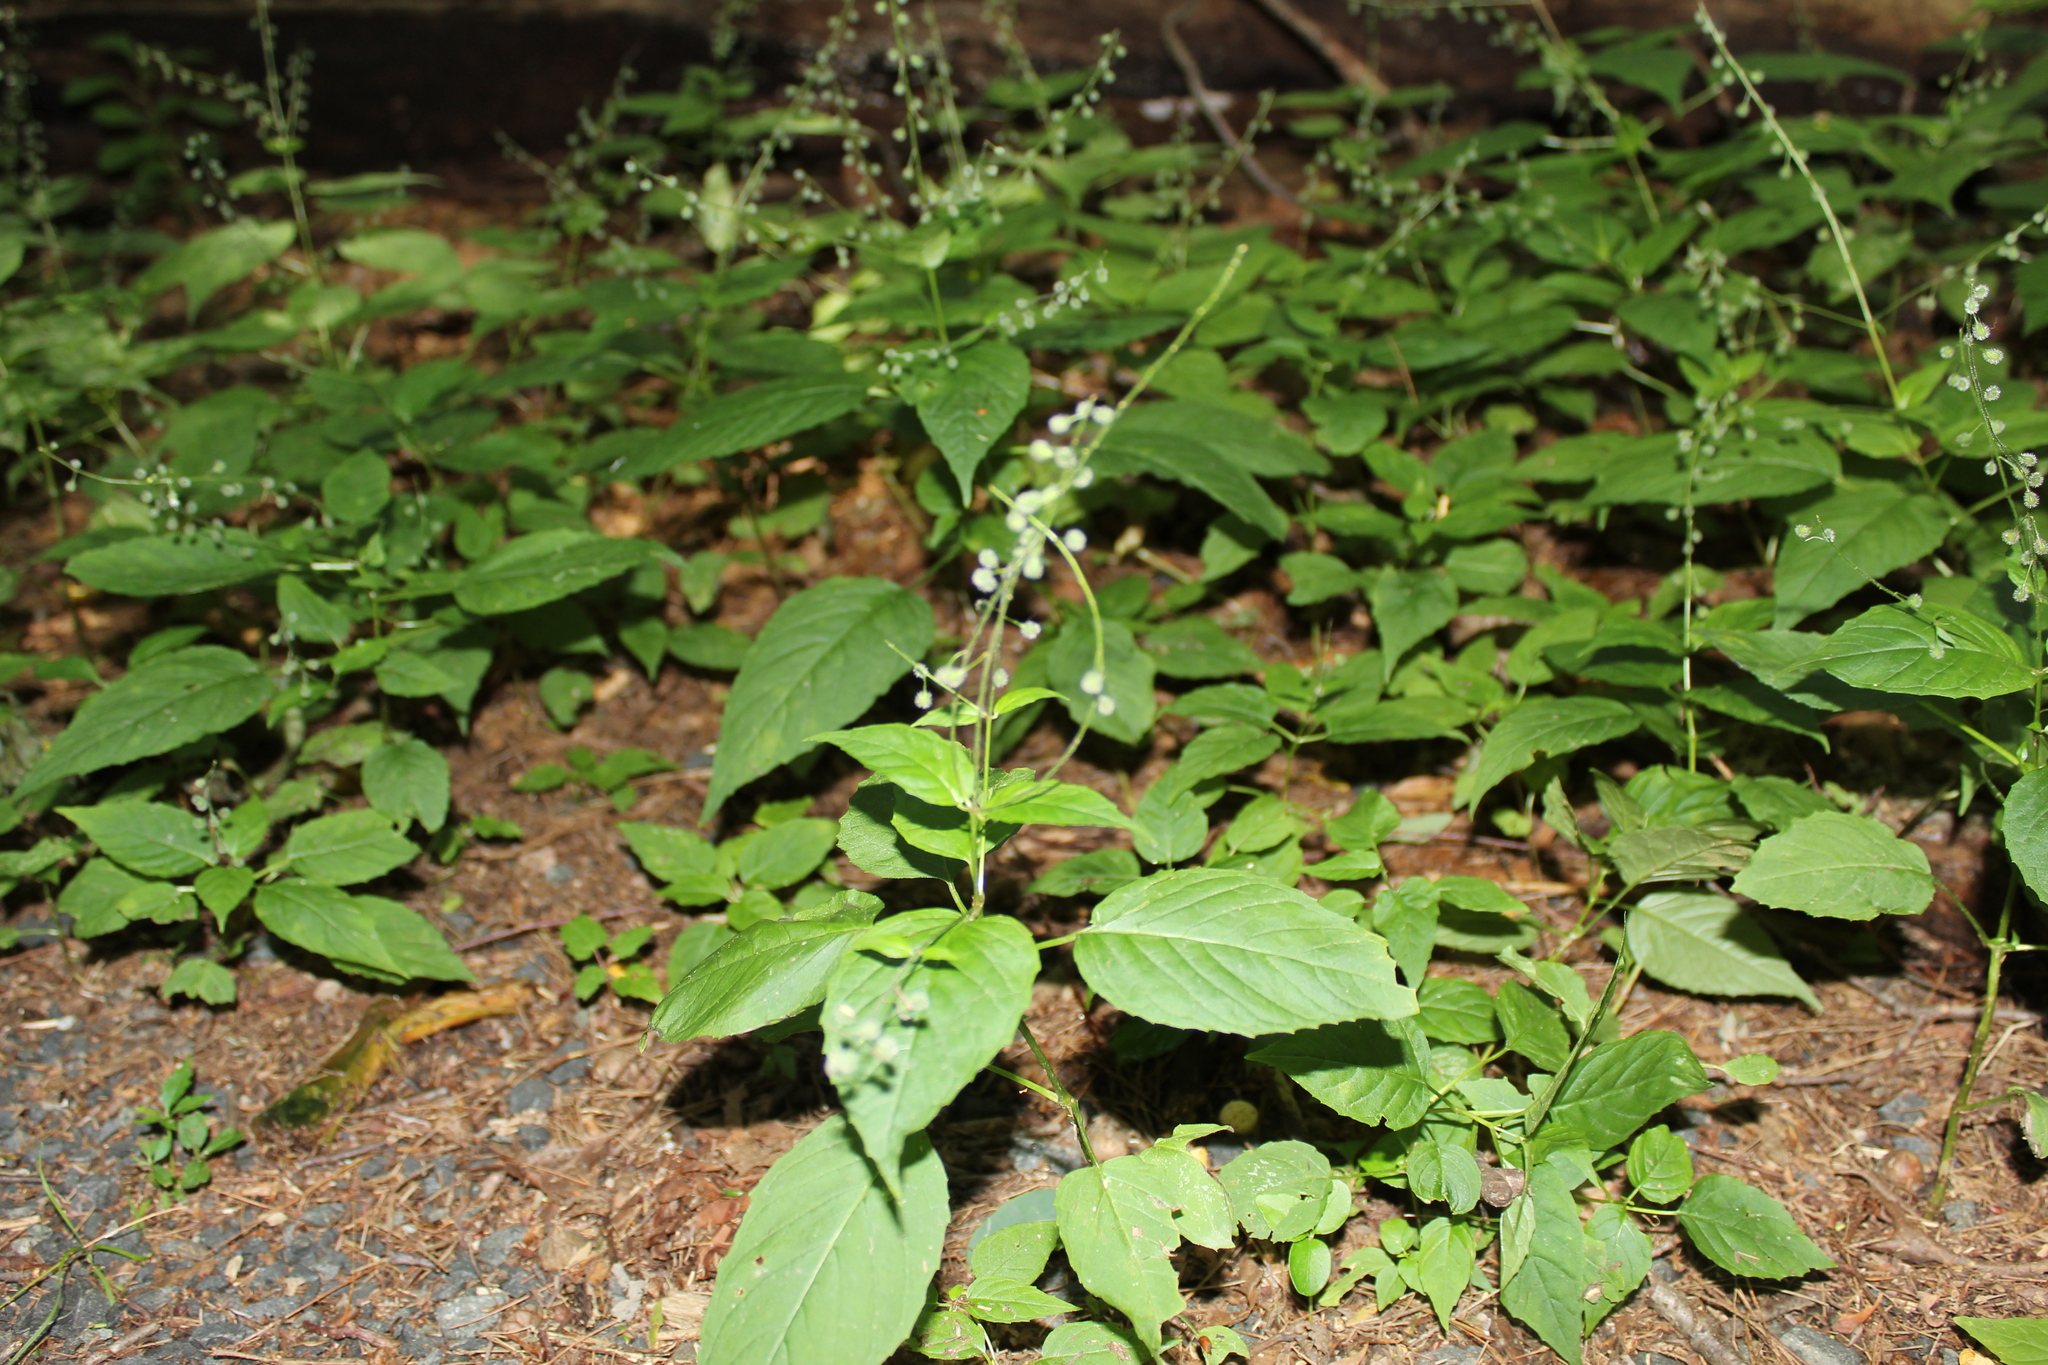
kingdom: Plantae
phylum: Tracheophyta
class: Magnoliopsida
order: Myrtales
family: Onagraceae
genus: Circaea
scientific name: Circaea canadensis
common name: Broad-leaved enchanter's nightshade
